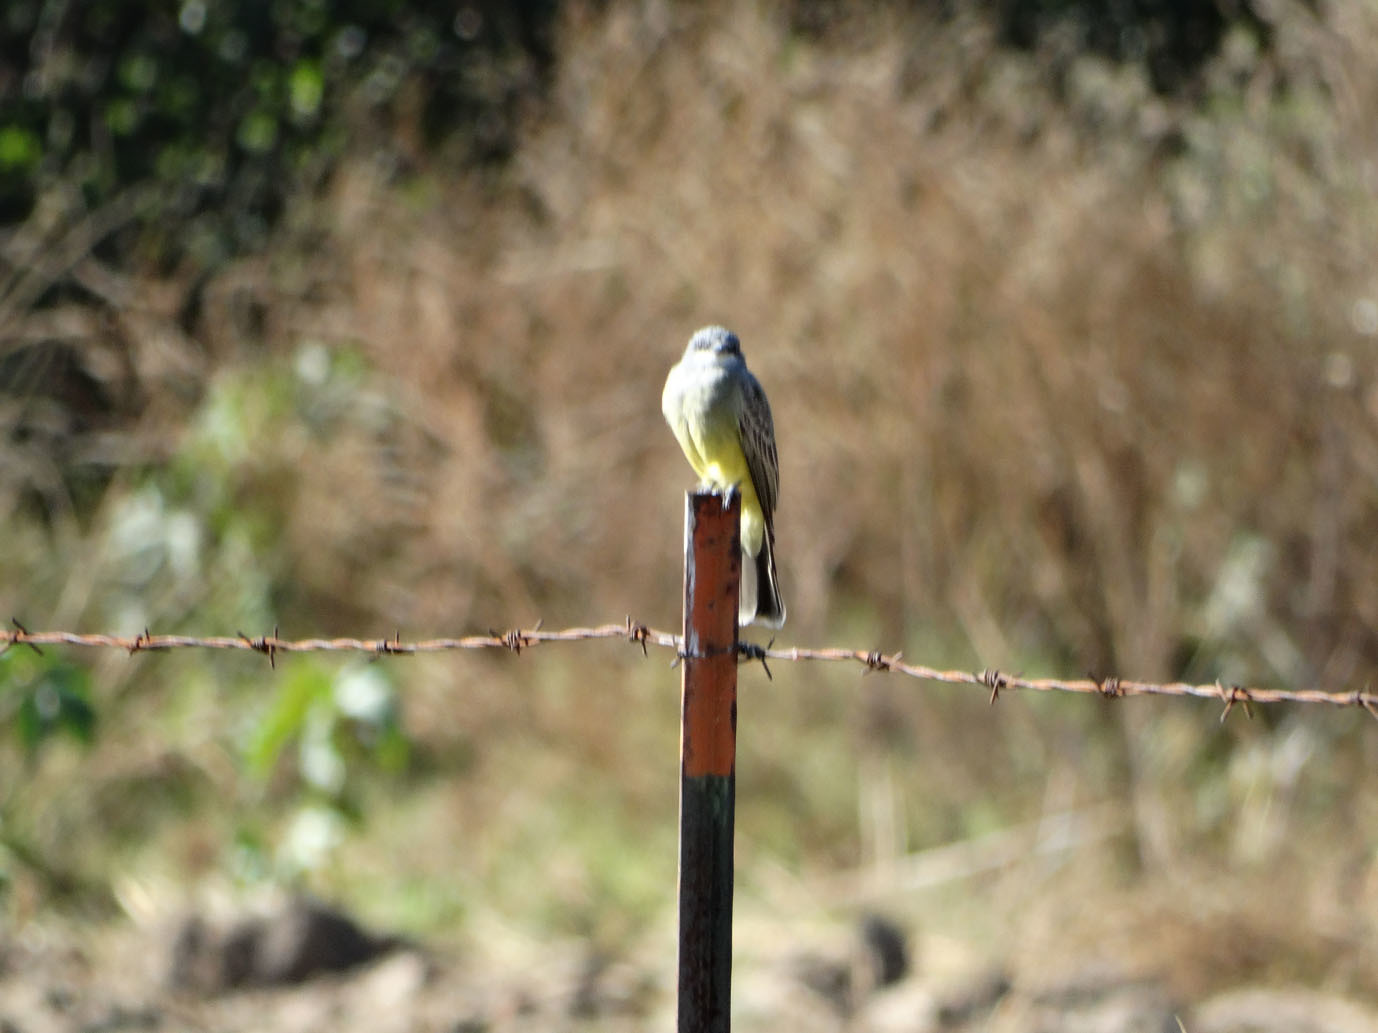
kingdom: Animalia
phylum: Chordata
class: Aves
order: Passeriformes
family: Tyrannidae
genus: Tyrannus
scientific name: Tyrannus vociferans
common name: Cassin's kingbird
